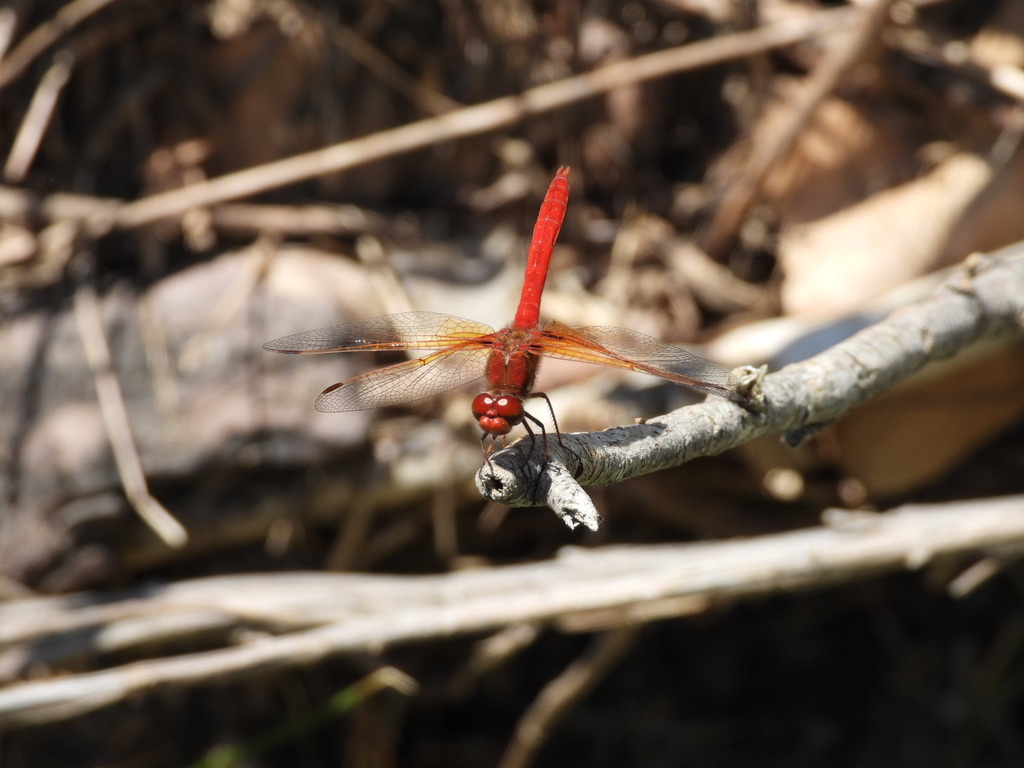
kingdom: Animalia
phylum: Arthropoda
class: Insecta
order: Odonata
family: Libellulidae
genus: Sympetrum
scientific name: Sympetrum illotum
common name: Cardinal meadowhawk
